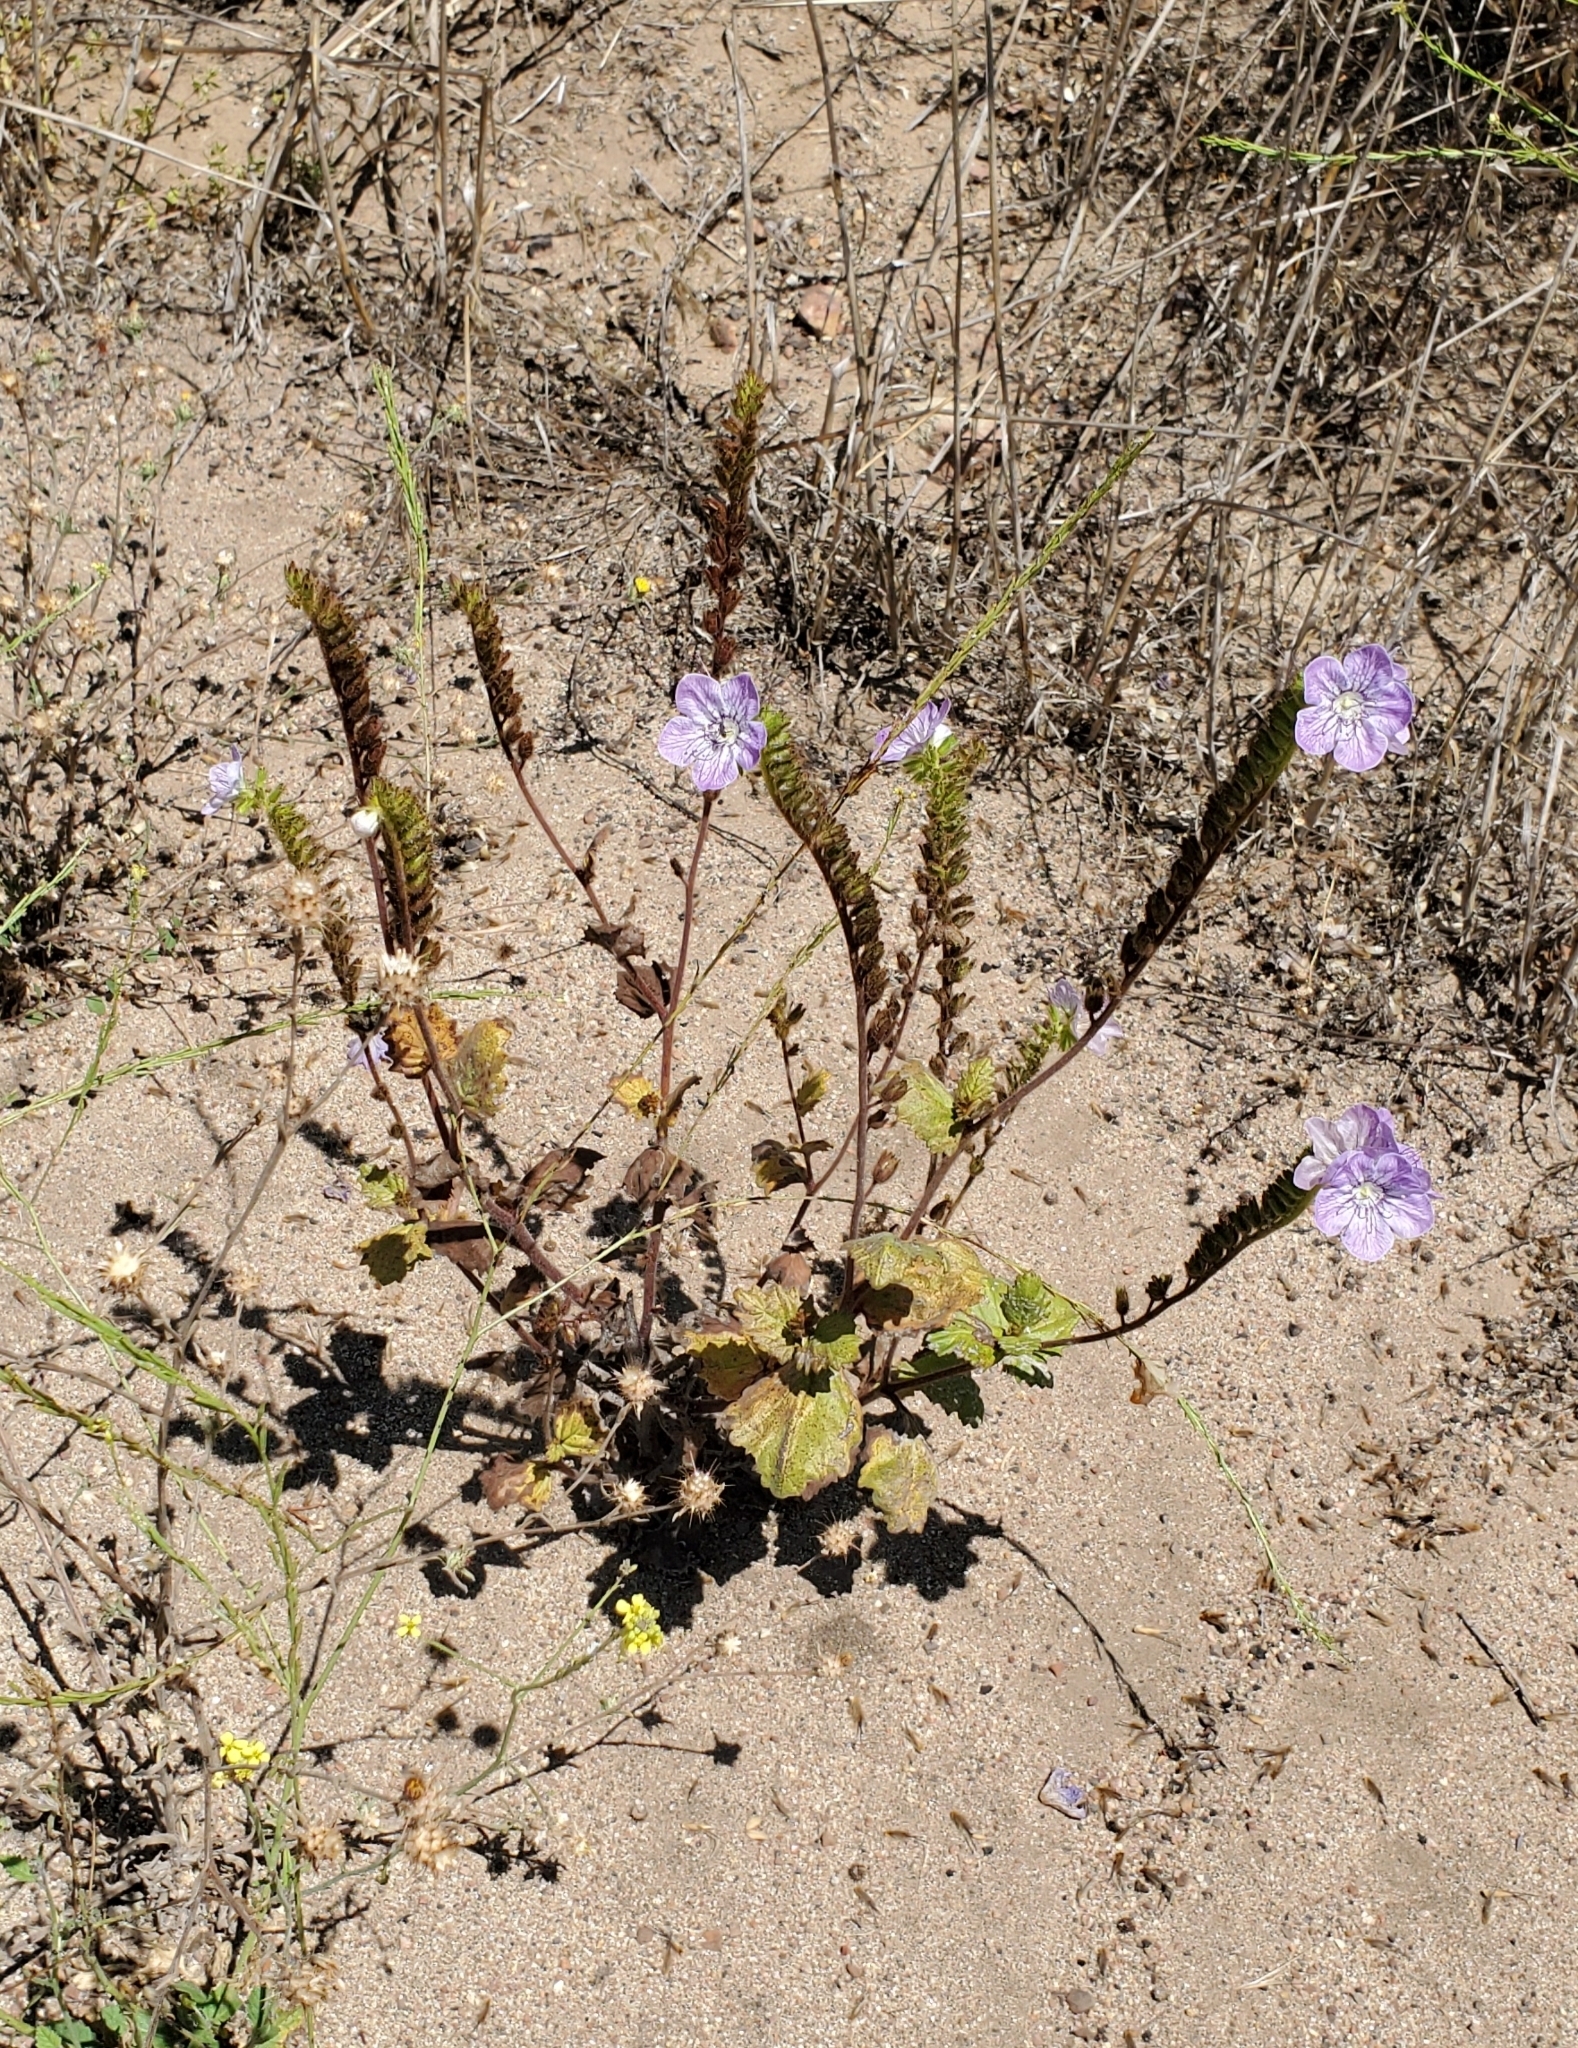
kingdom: Plantae
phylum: Tracheophyta
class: Magnoliopsida
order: Boraginales
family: Hydrophyllaceae
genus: Phacelia
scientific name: Phacelia grandiflora
